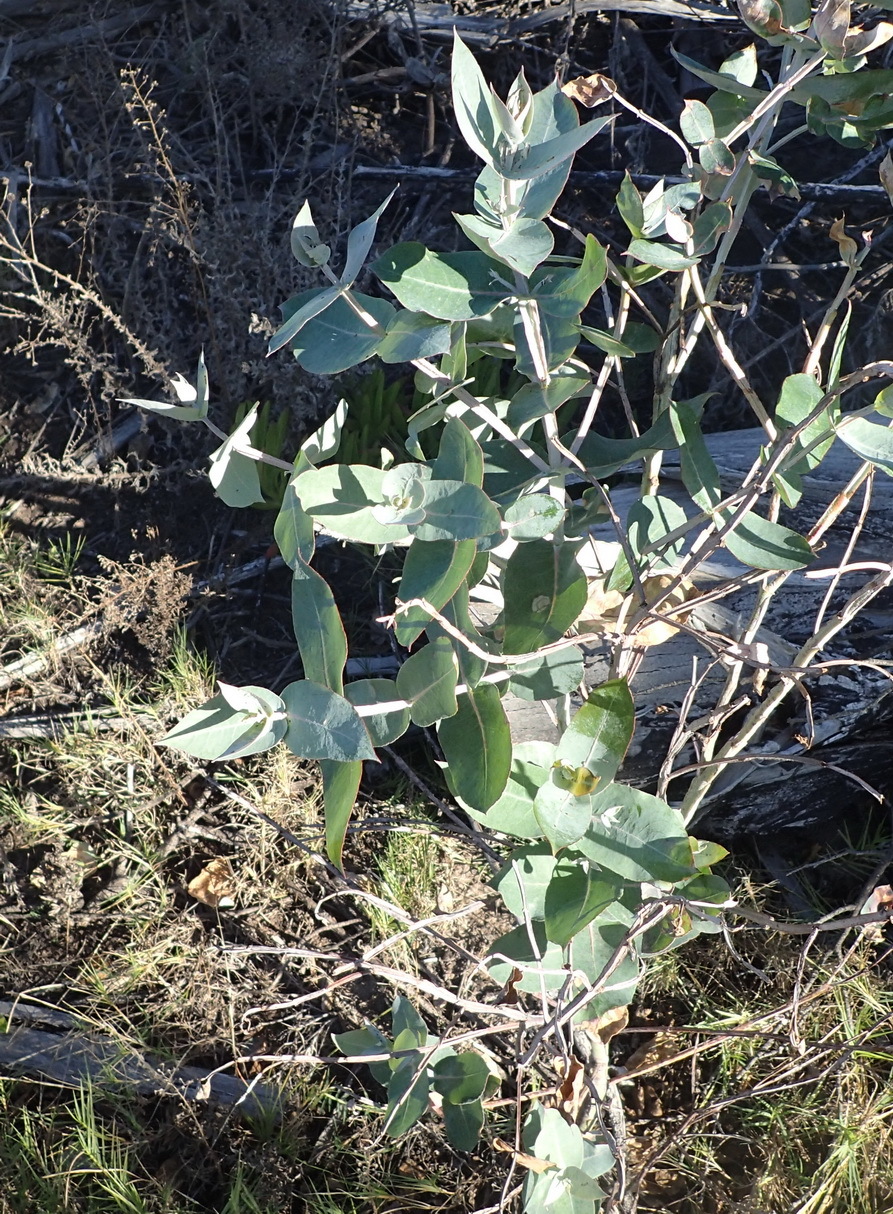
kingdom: Plantae
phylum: Tracheophyta
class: Magnoliopsida
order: Myrtales
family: Myrtaceae
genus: Eucalyptus
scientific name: Eucalyptus cinerea
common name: Argyle apple
